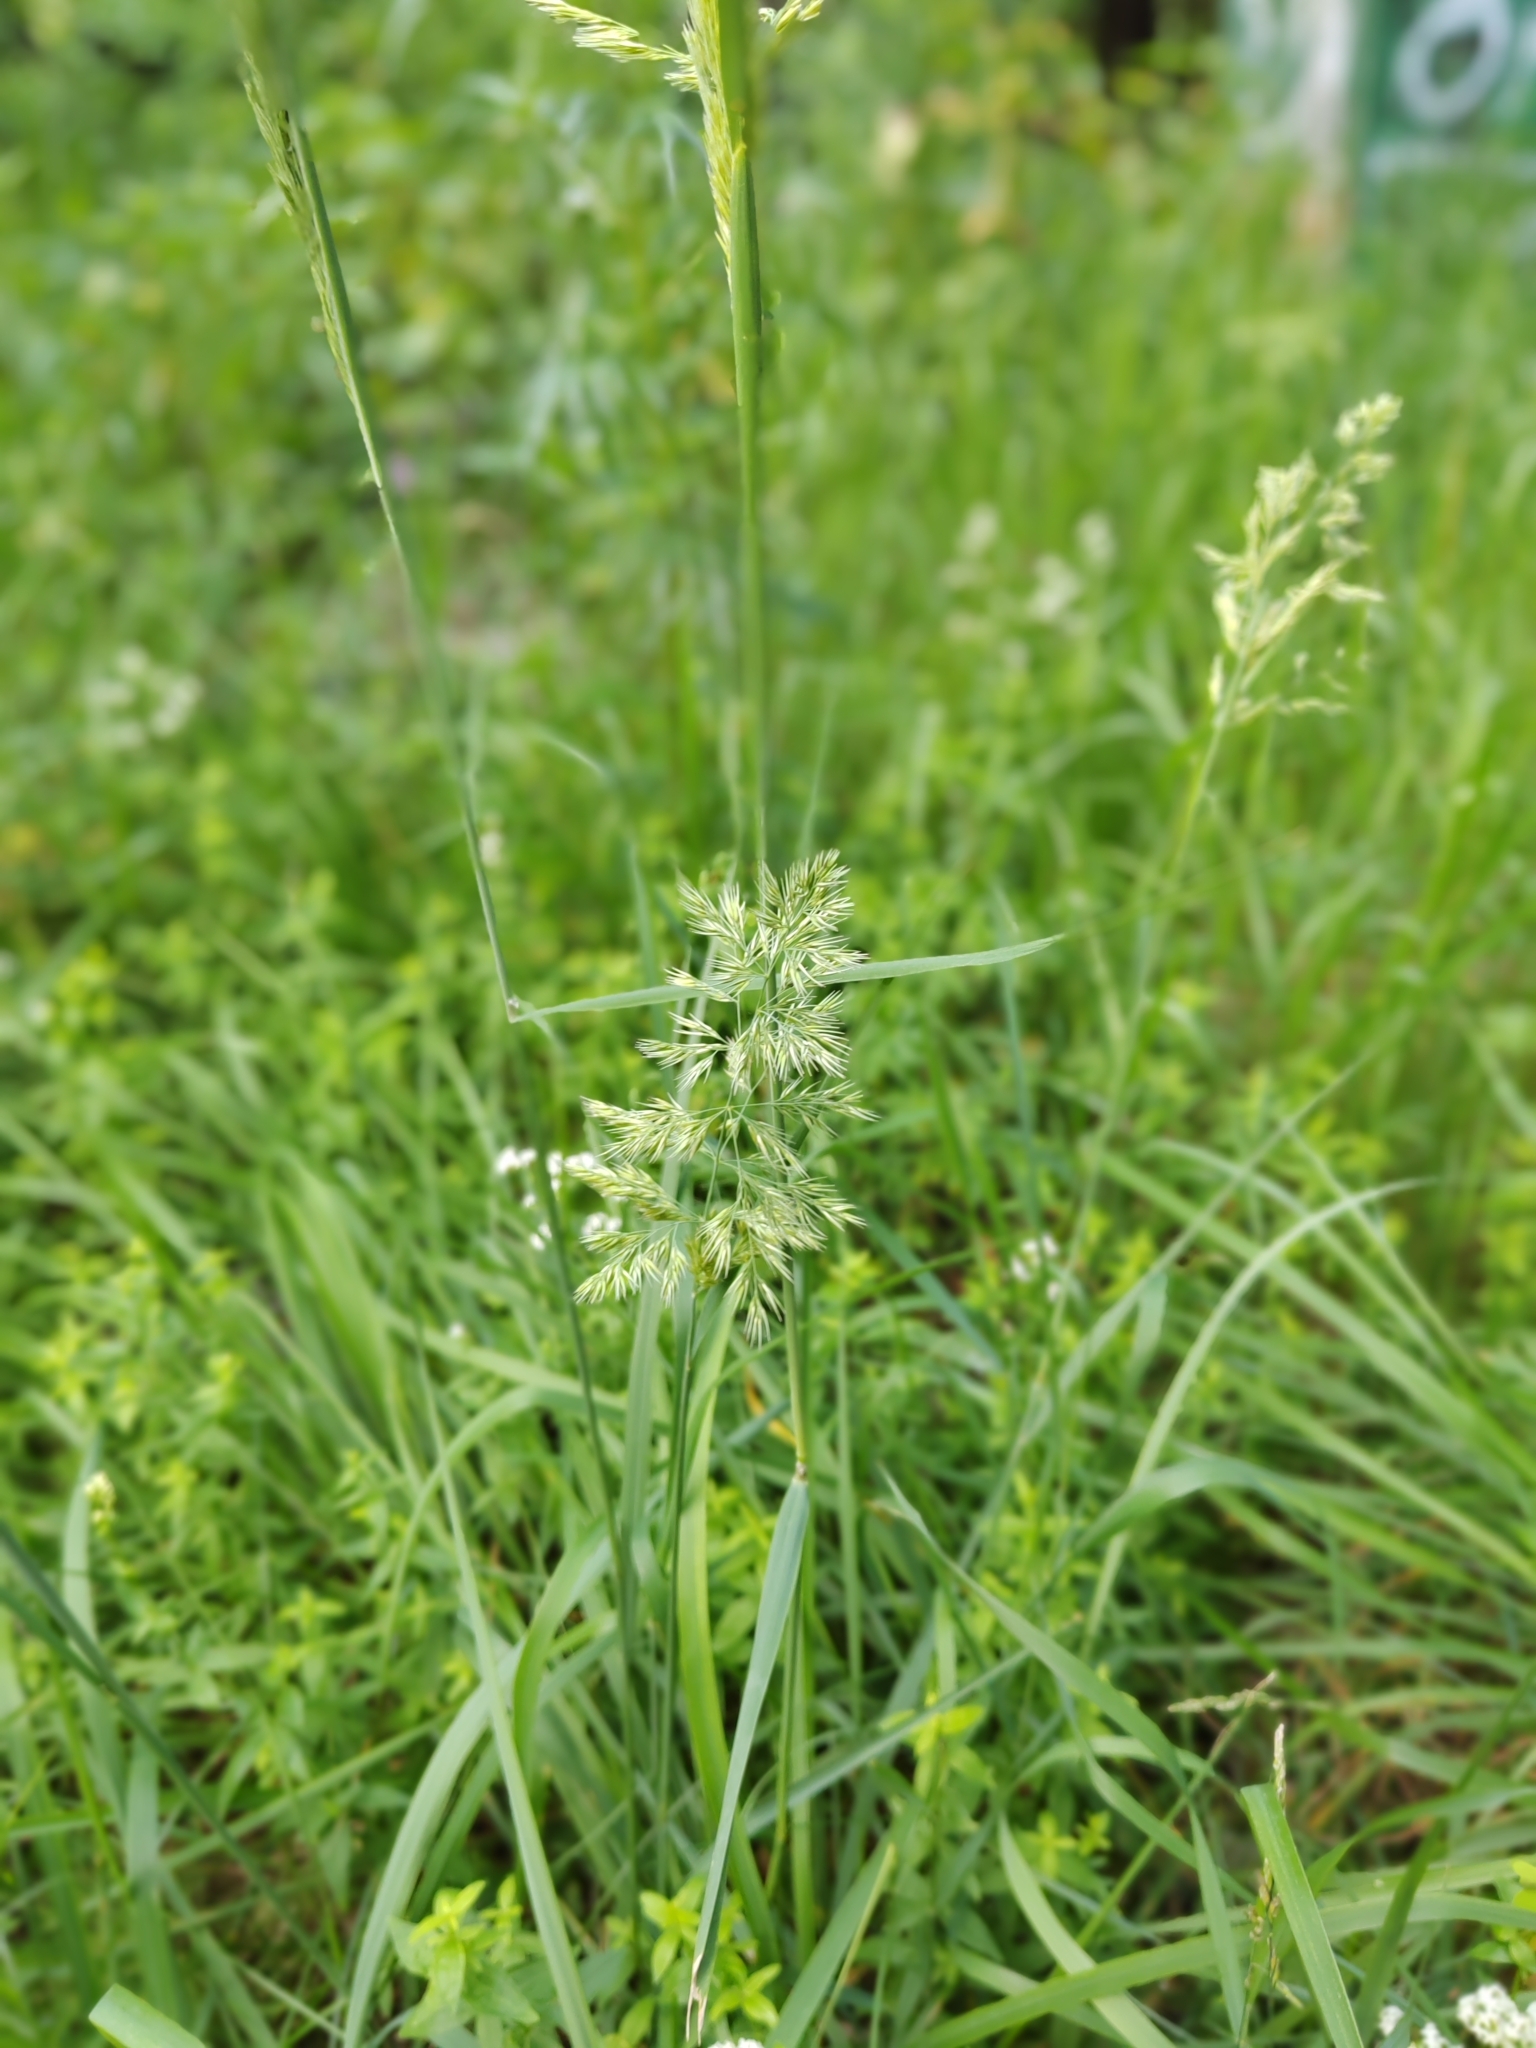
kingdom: Plantae
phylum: Tracheophyta
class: Liliopsida
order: Poales
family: Poaceae
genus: Poa
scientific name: Poa pratensis
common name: Kentucky bluegrass
